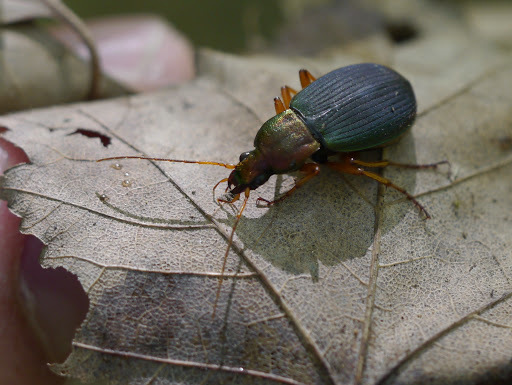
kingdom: Animalia
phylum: Arthropoda
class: Insecta
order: Coleoptera
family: Carabidae
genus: Chlaenius
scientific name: Chlaenius aestivus
